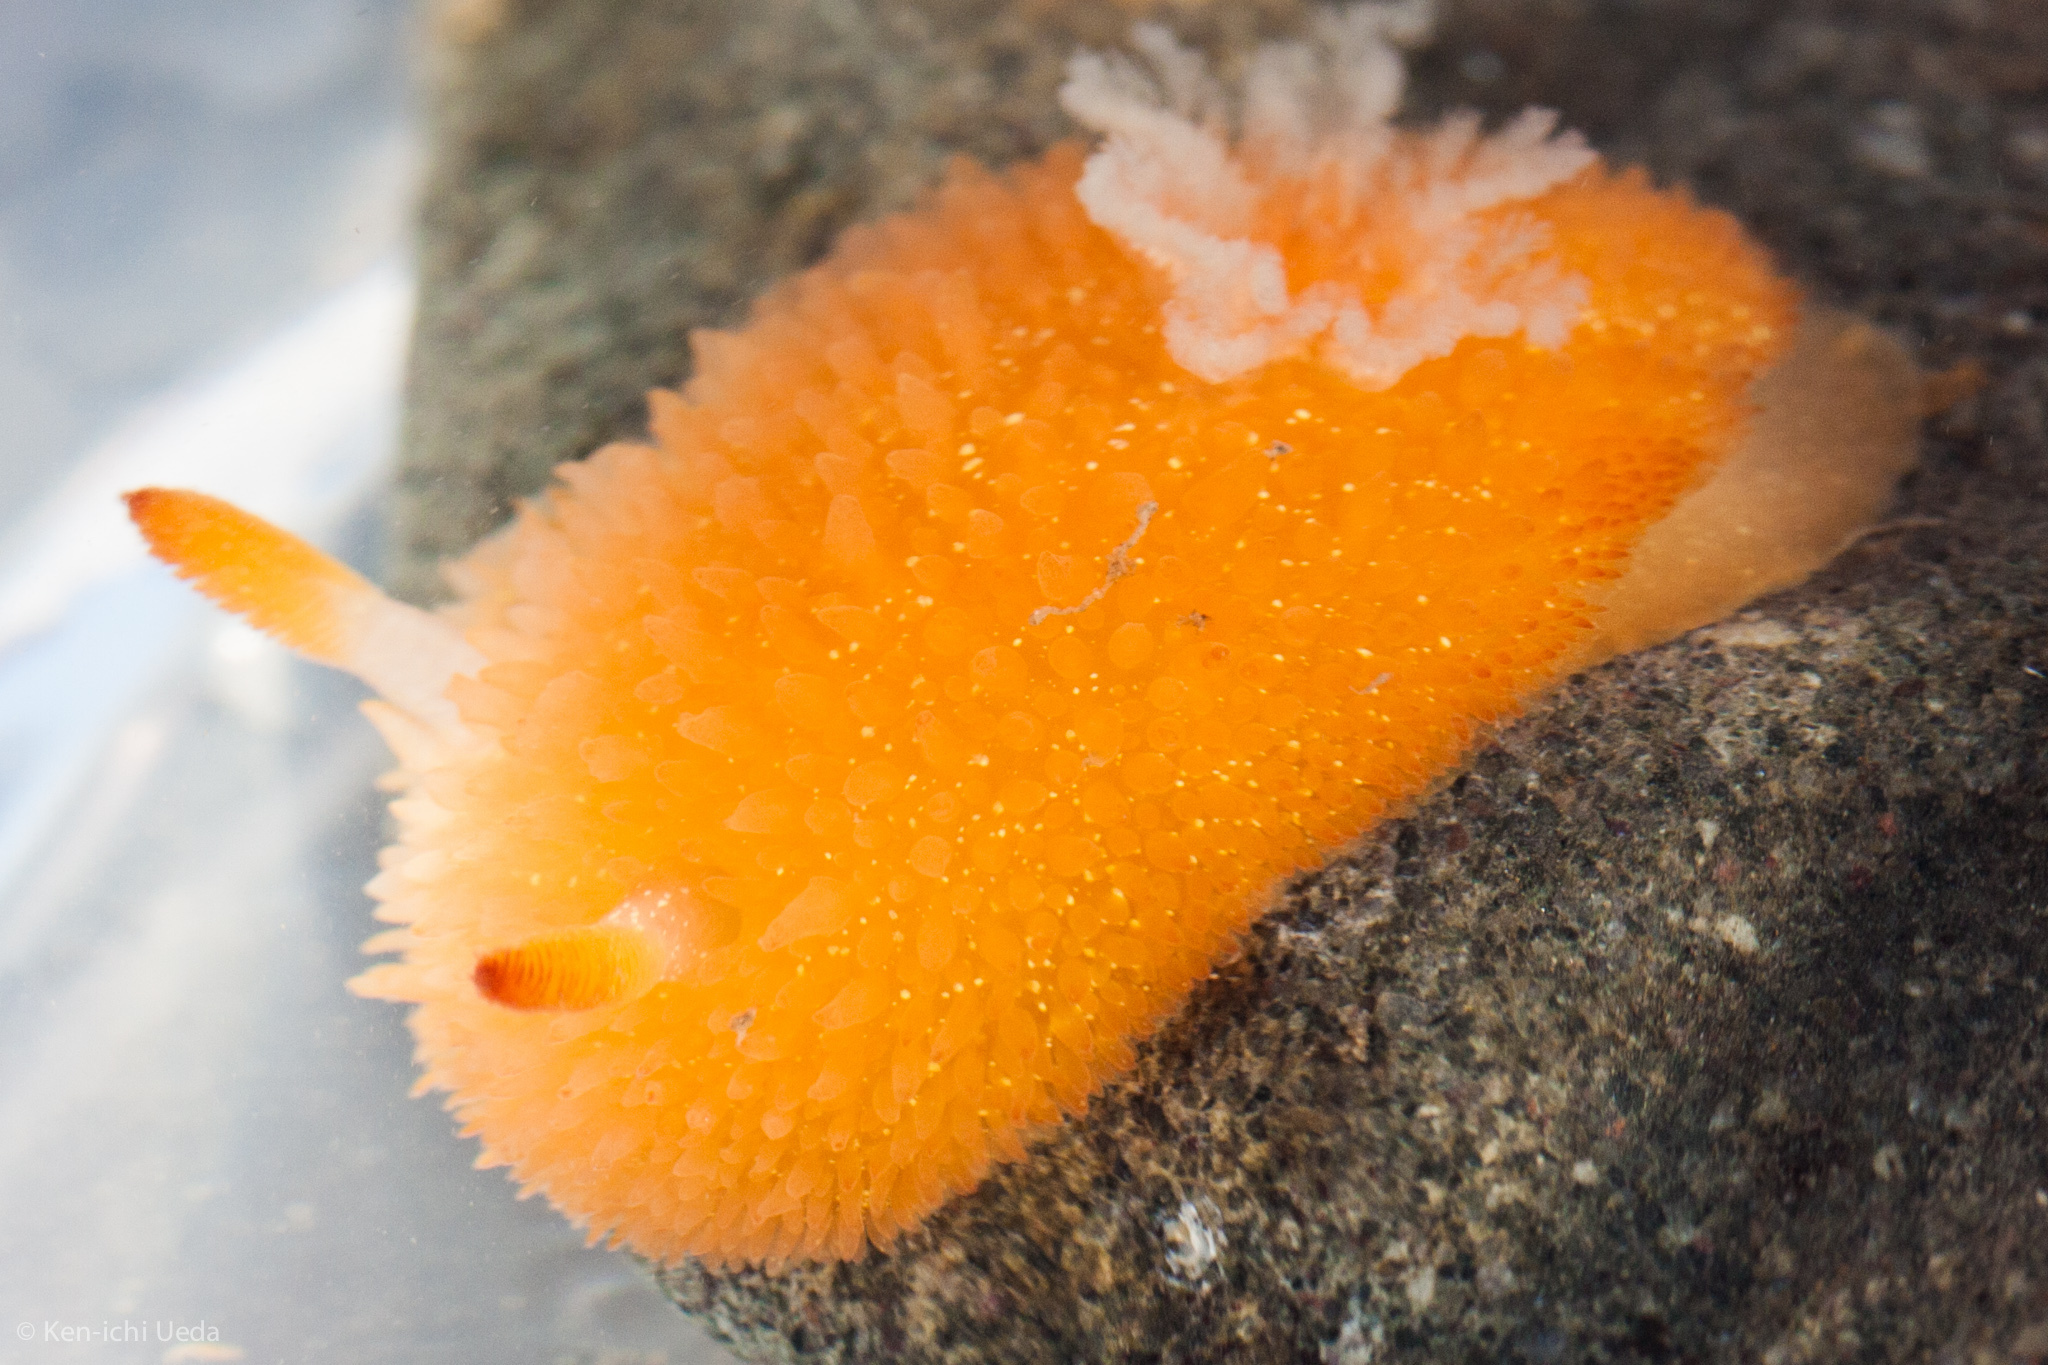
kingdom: Animalia
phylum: Mollusca
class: Gastropoda
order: Nudibranchia
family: Onchidorididae
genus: Acanthodoris
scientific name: Acanthodoris lutea
